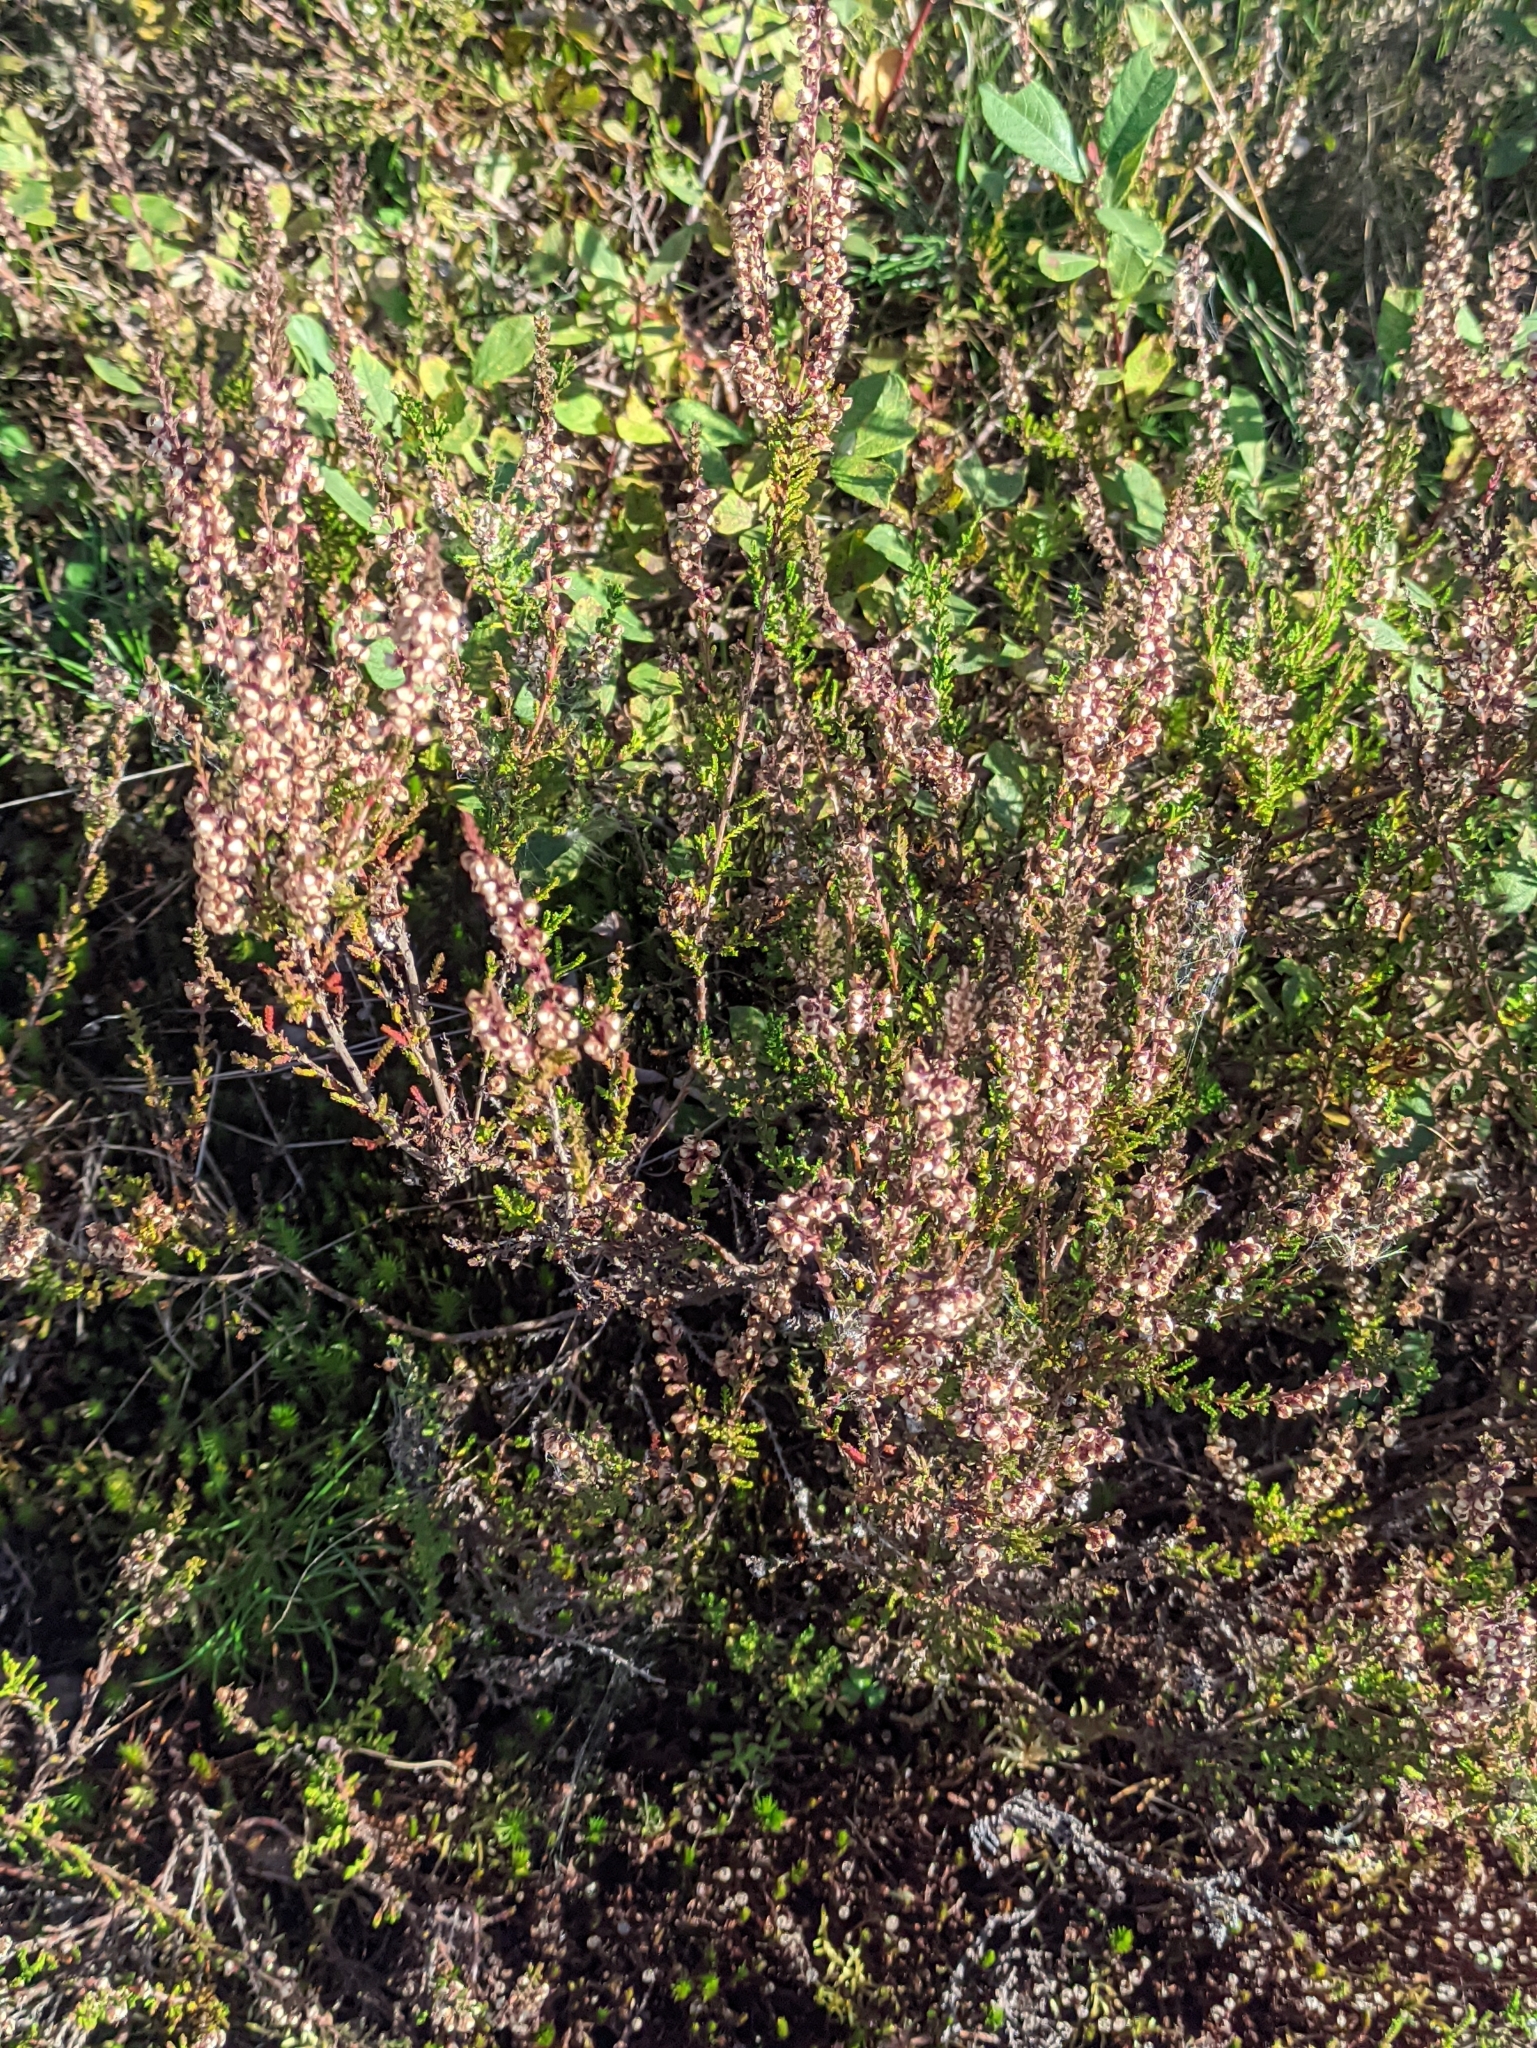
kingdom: Plantae
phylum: Tracheophyta
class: Magnoliopsida
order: Ericales
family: Ericaceae
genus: Calluna
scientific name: Calluna vulgaris
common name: Heather
